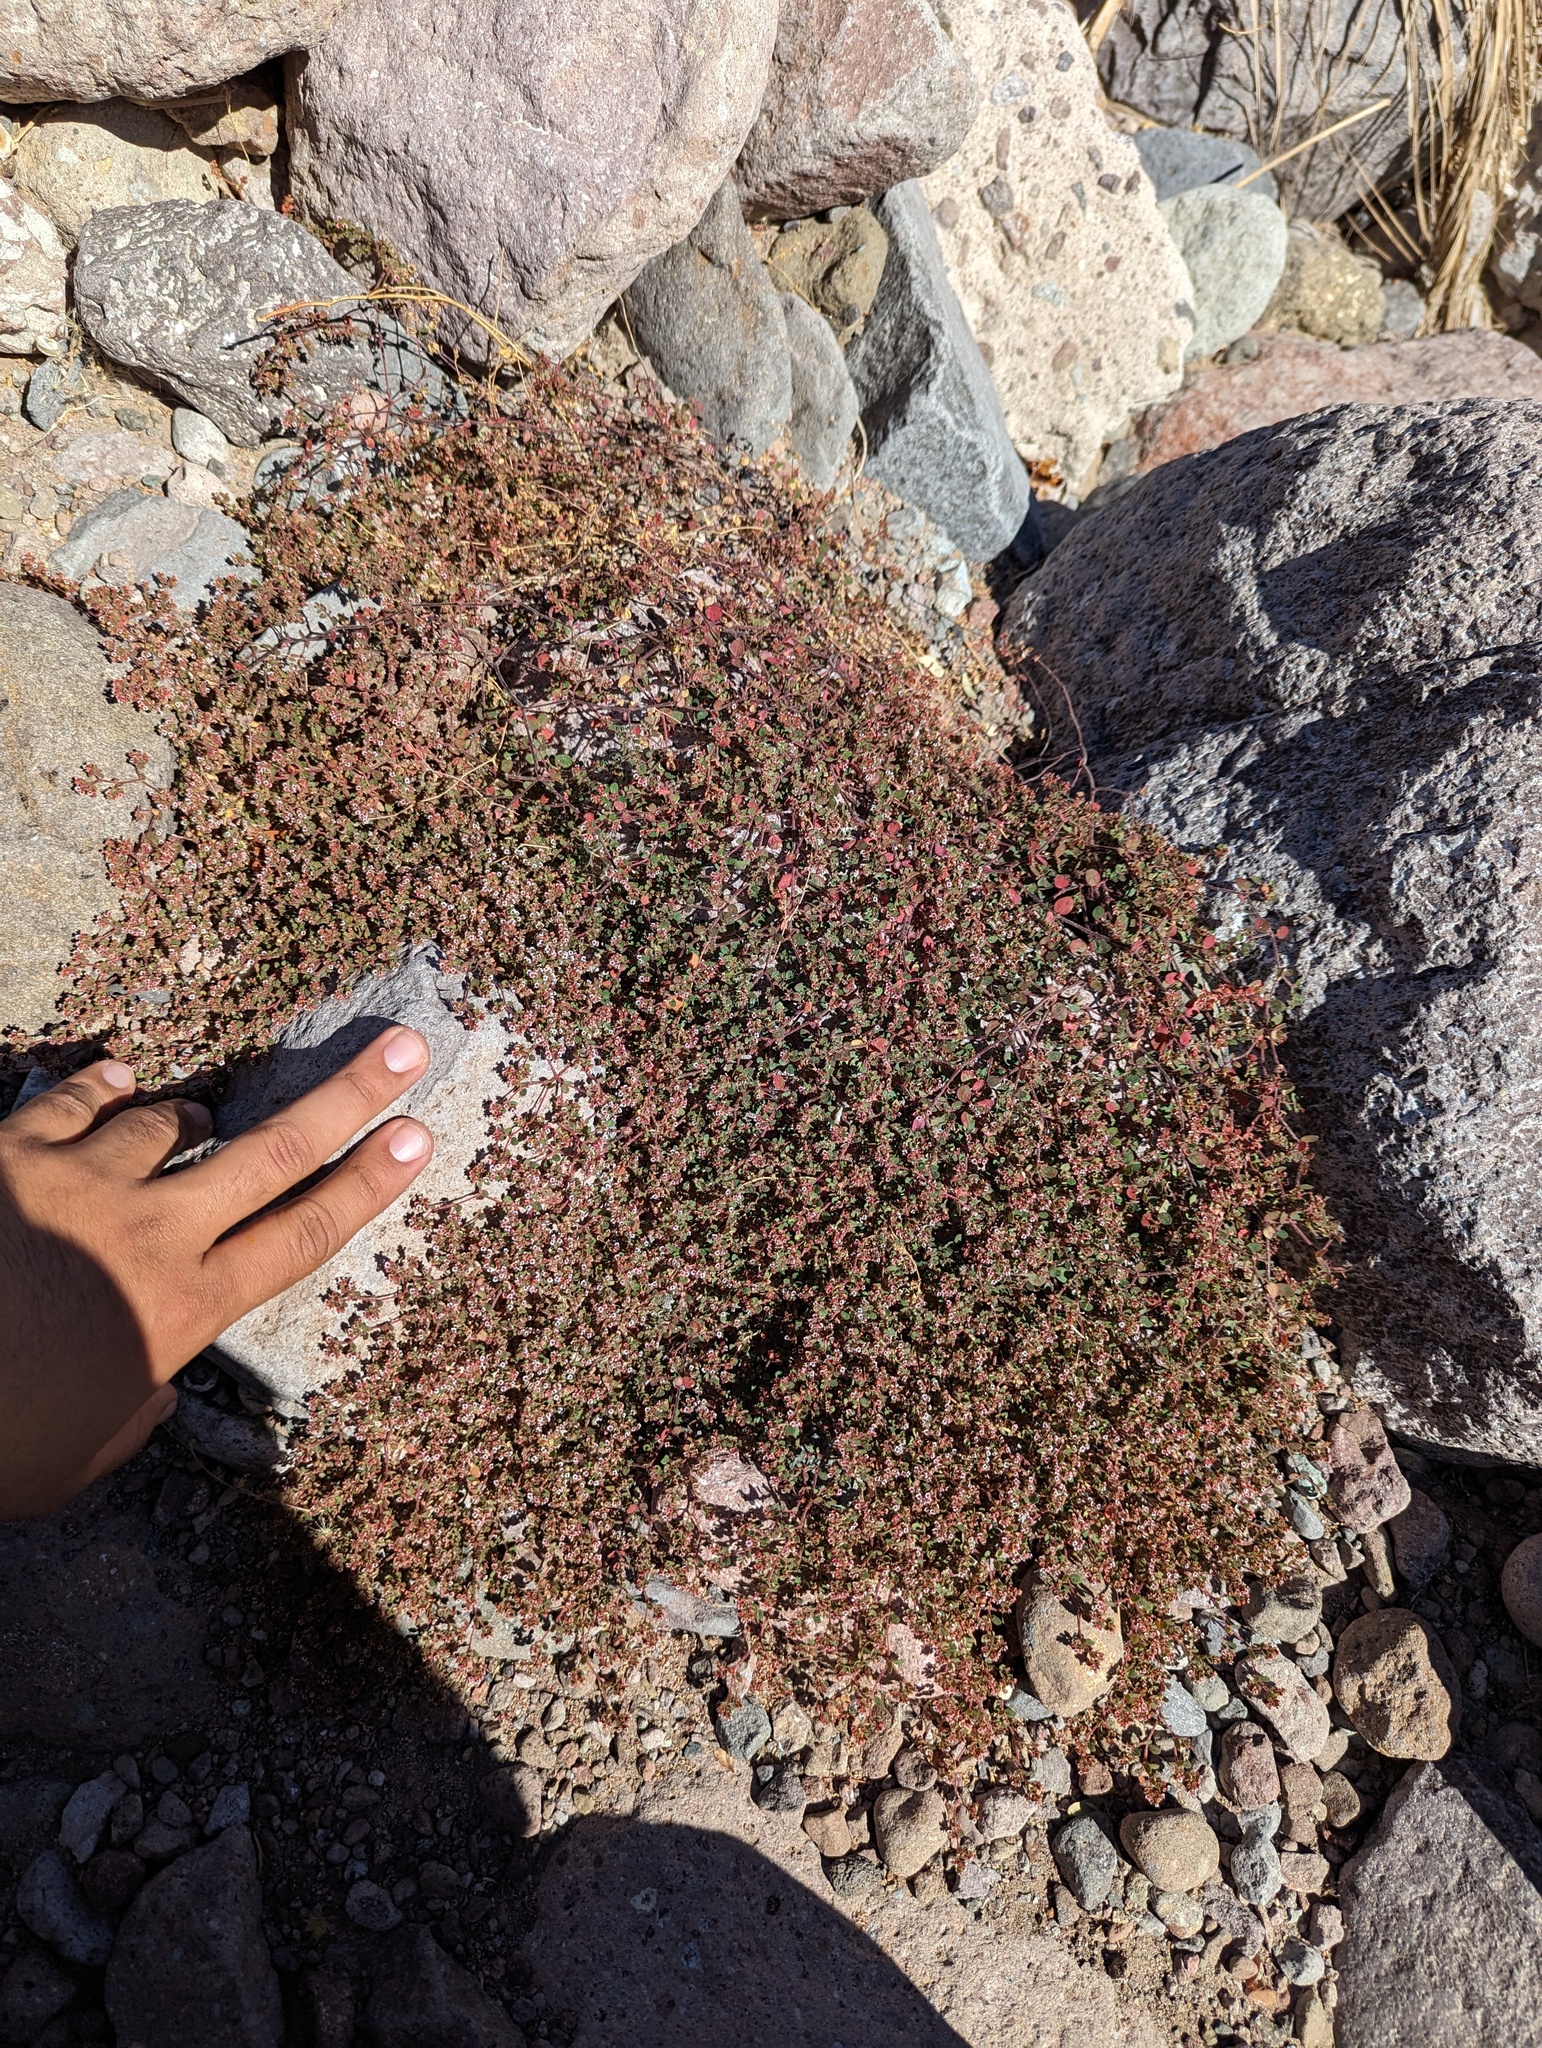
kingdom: Plantae
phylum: Tracheophyta
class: Magnoliopsida
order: Malpighiales
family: Euphorbiaceae
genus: Euphorbia
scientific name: Euphorbia arizonica
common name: Arizona spurge
